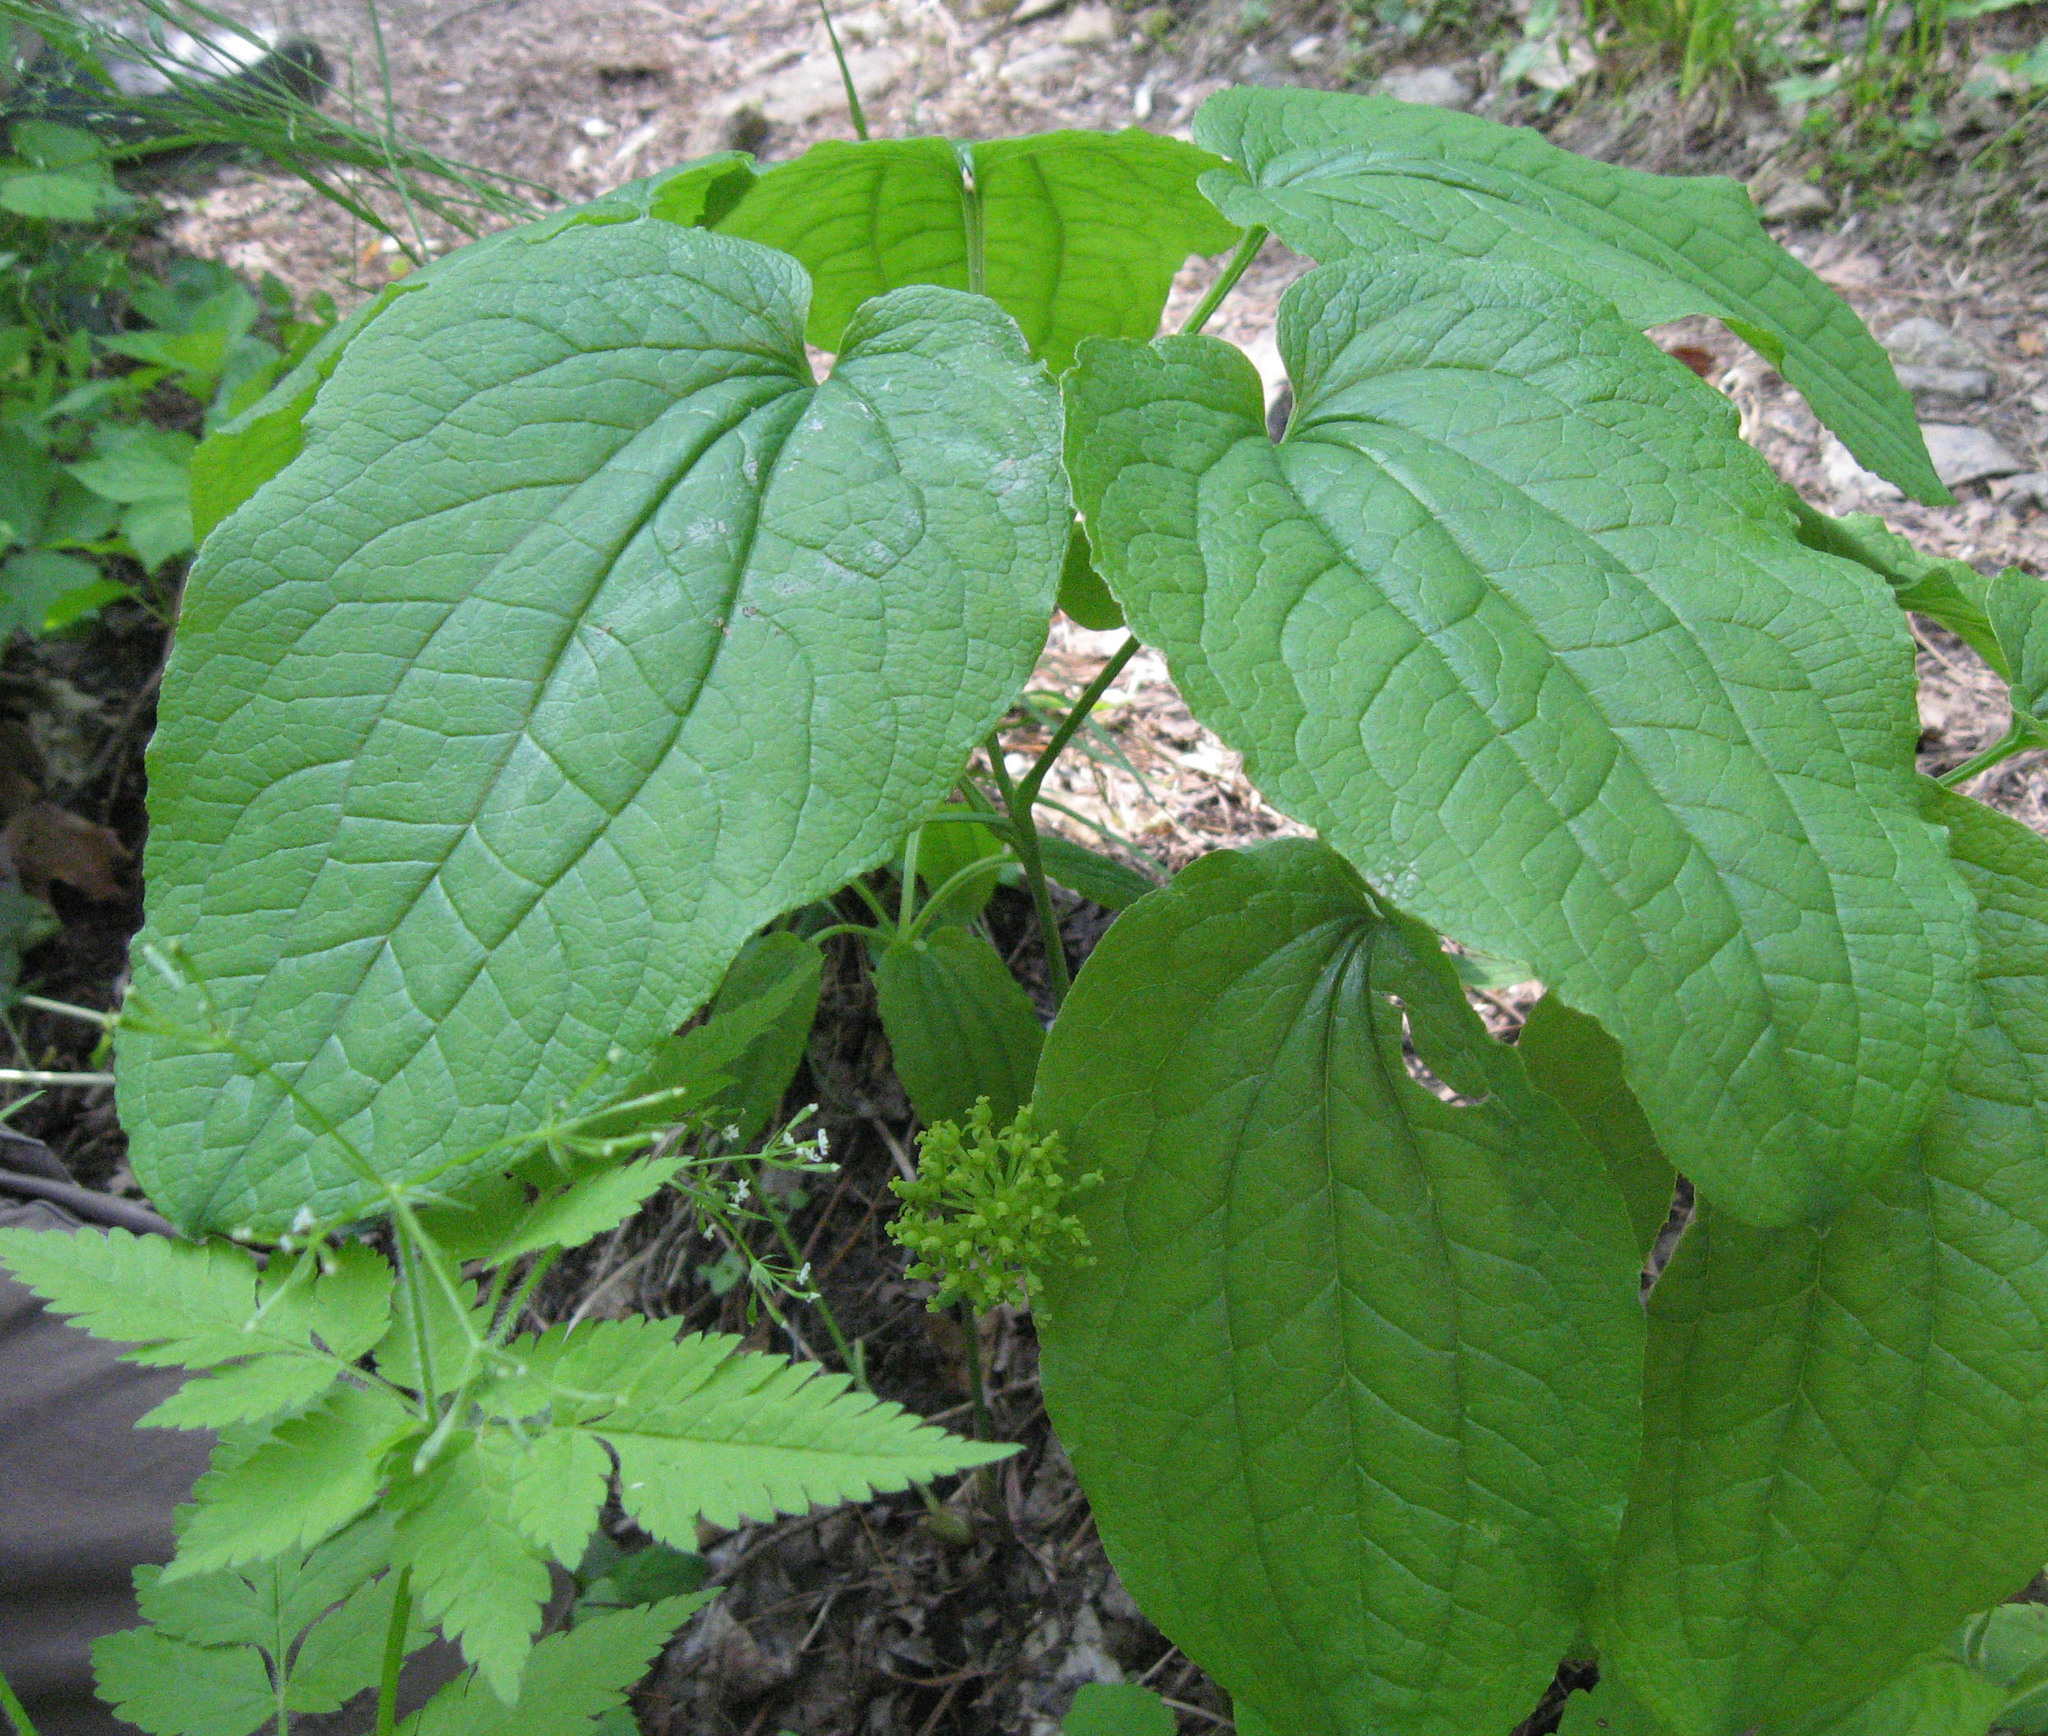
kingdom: Plantae
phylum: Tracheophyta
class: Liliopsida
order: Liliales
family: Smilacaceae
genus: Smilax
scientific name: Smilax ecirrhata
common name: Upright carrionflower
